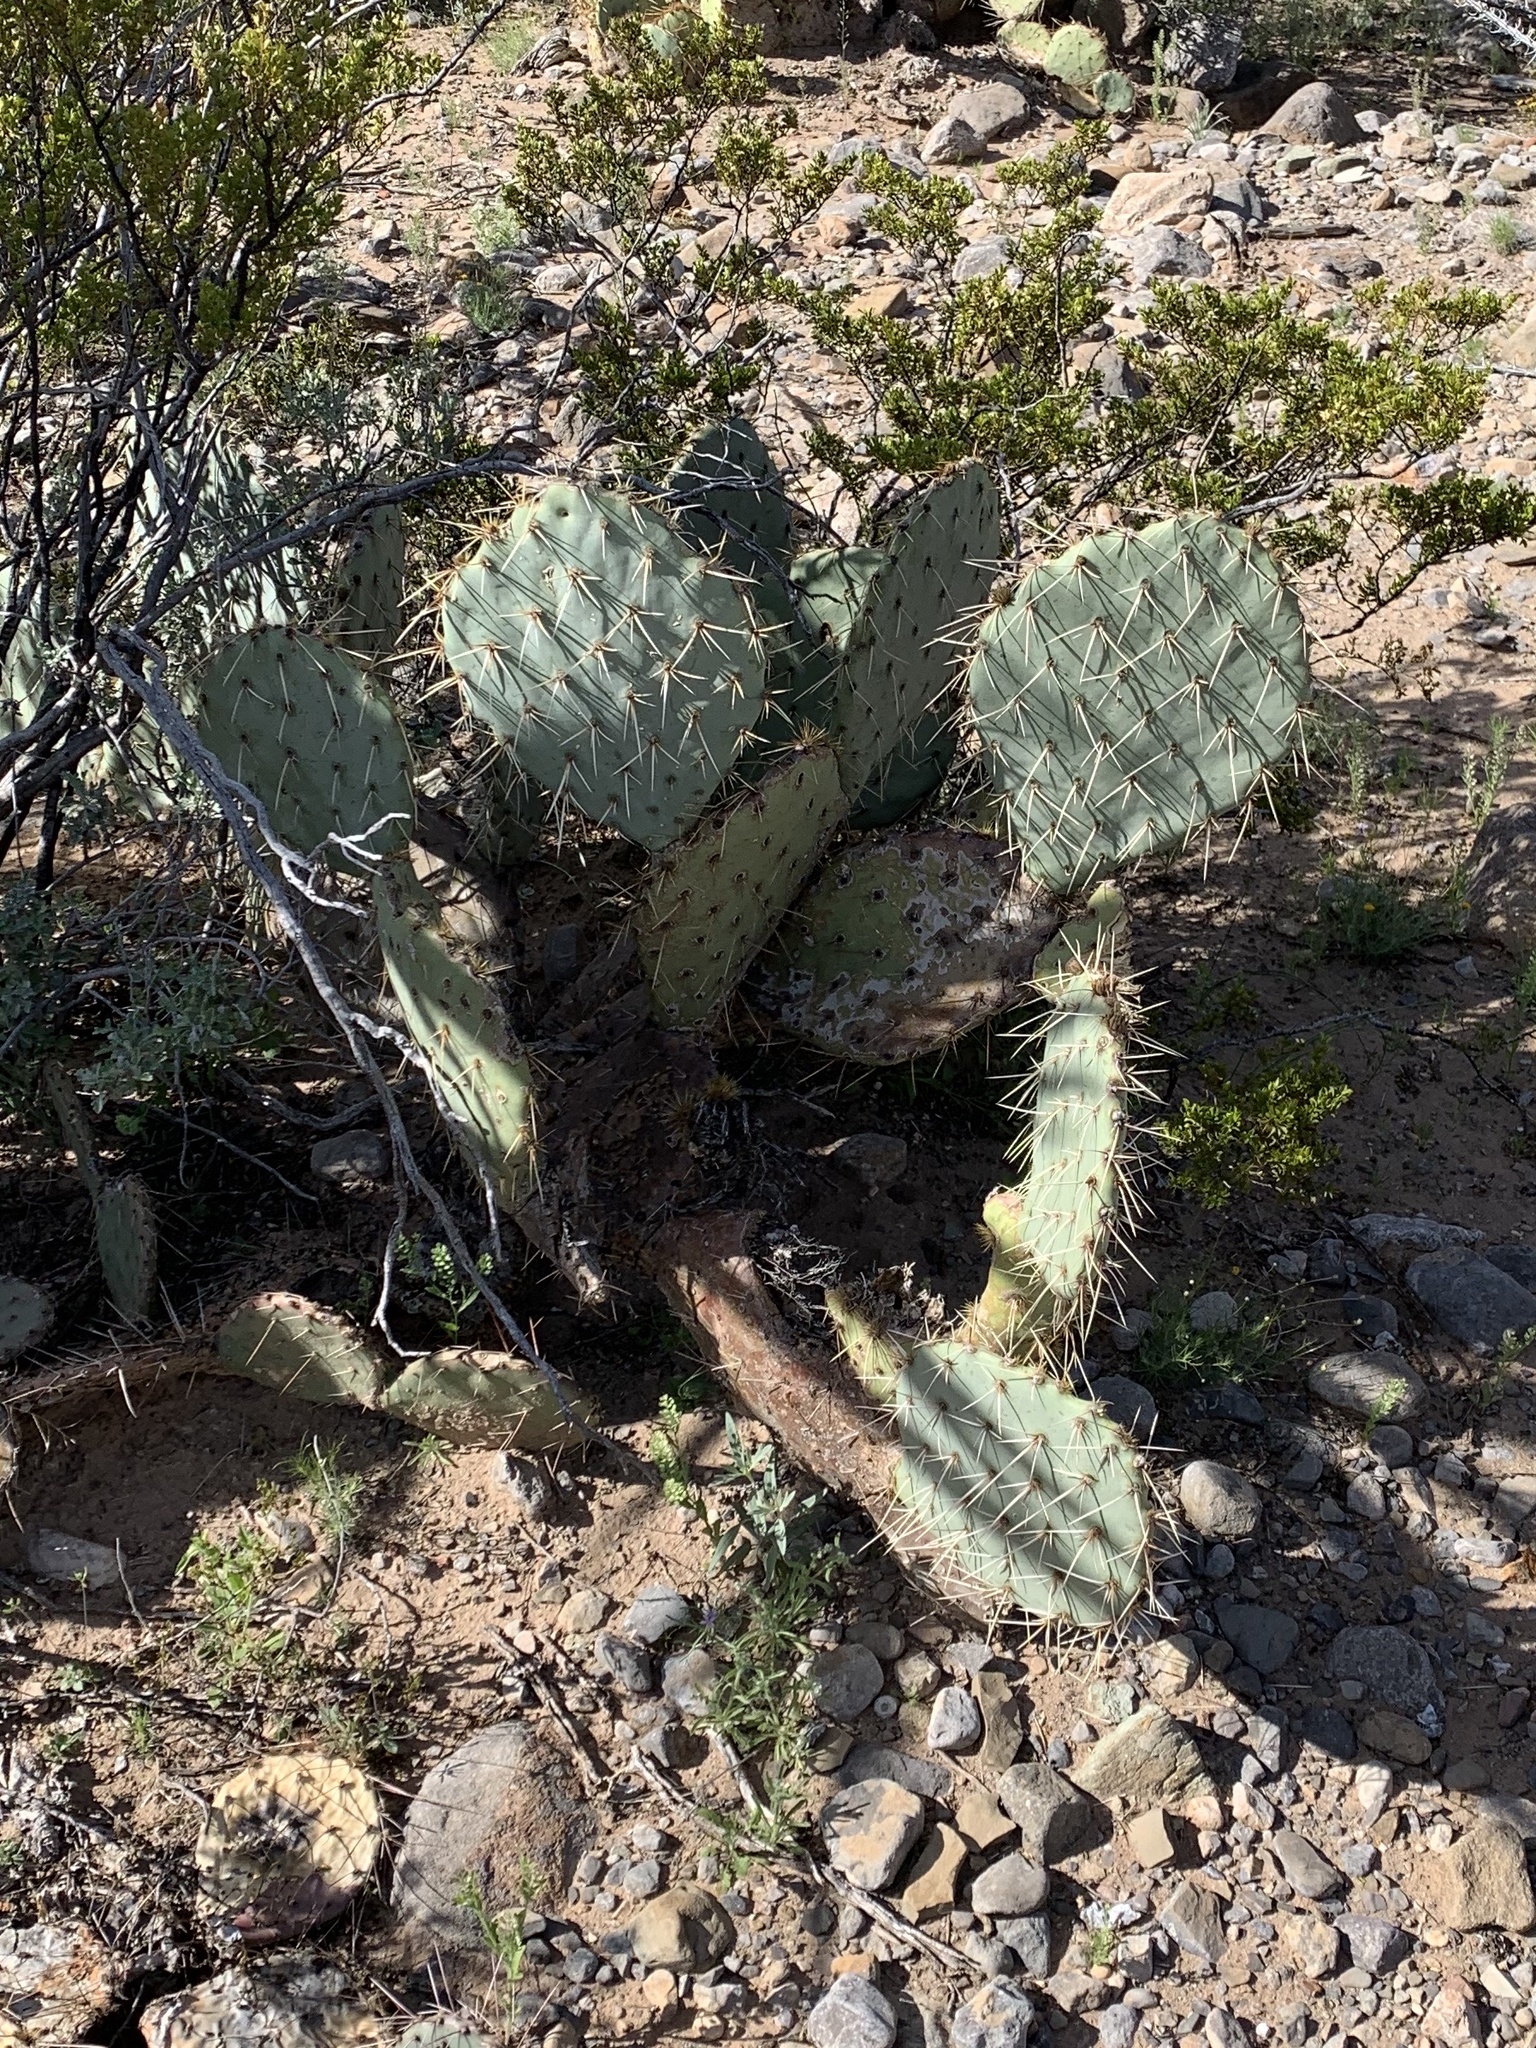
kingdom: Plantae
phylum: Tracheophyta
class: Magnoliopsida
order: Caryophyllales
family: Cactaceae
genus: Opuntia
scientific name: Opuntia engelmannii
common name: Cactus-apple
